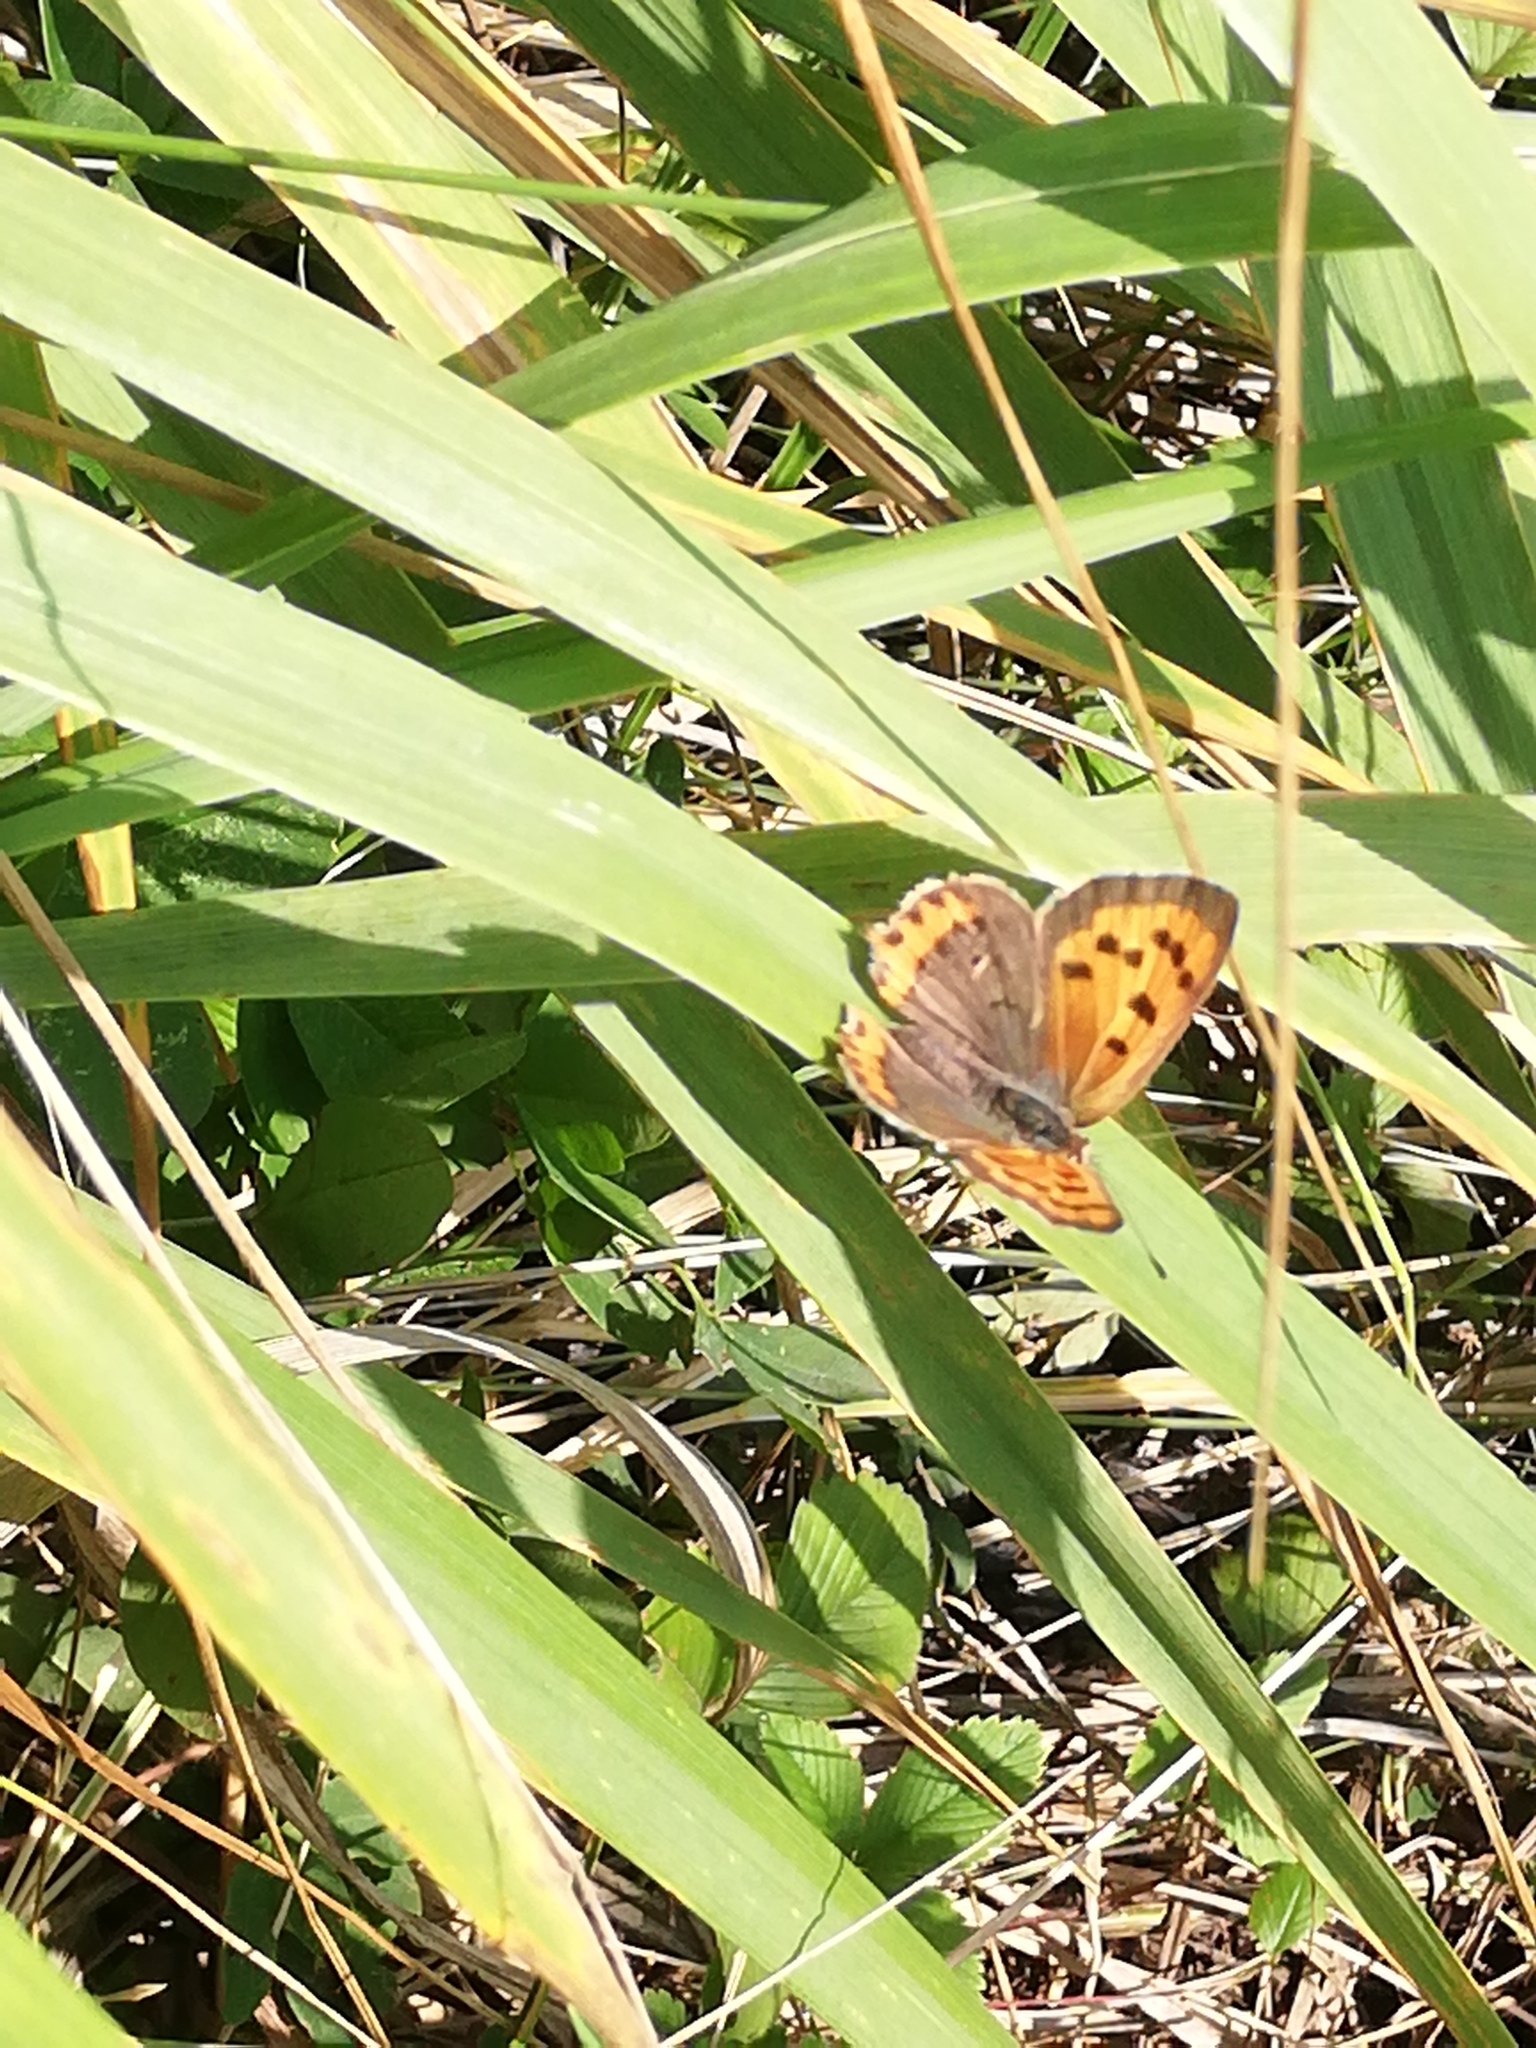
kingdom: Animalia
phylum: Arthropoda
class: Insecta
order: Lepidoptera
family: Lycaenidae
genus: Lycaena
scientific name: Lycaena phlaeas
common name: Small copper
